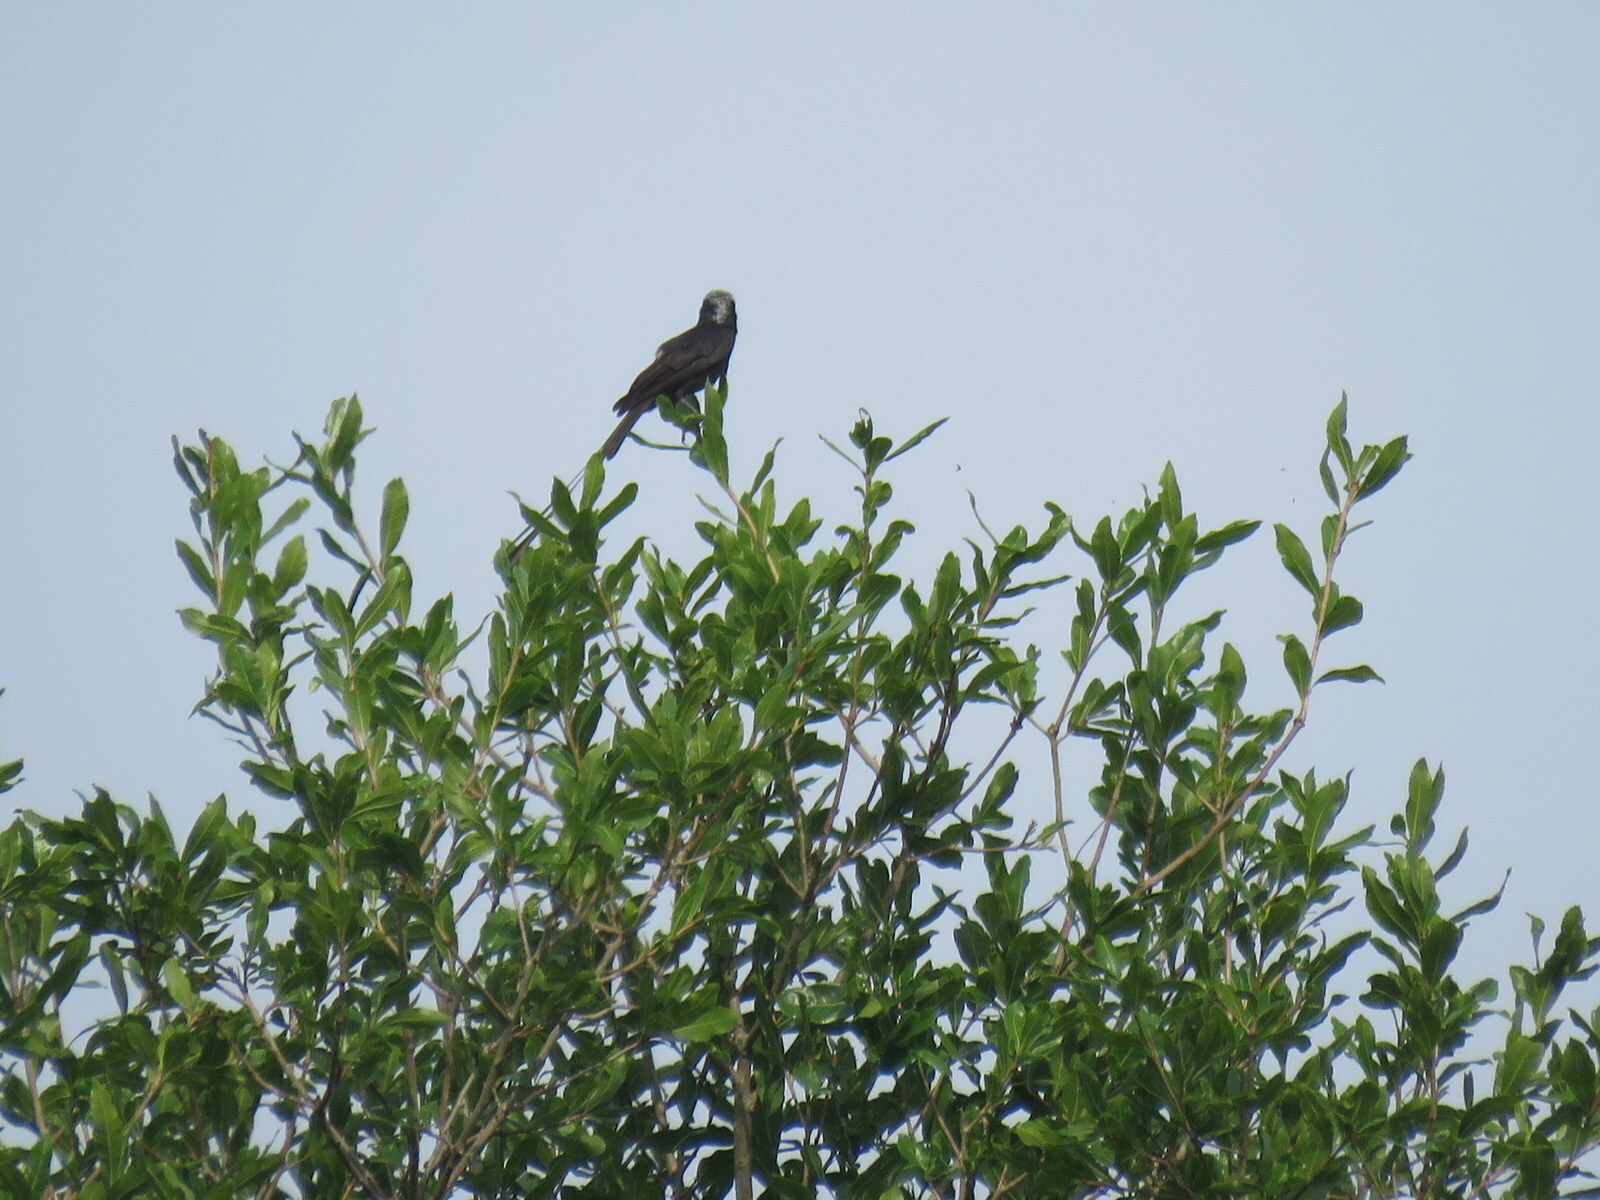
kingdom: Animalia
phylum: Chordata
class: Aves
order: Passeriformes
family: Tyrannidae
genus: Colonia
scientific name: Colonia colonus
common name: Long-tailed tyrant
